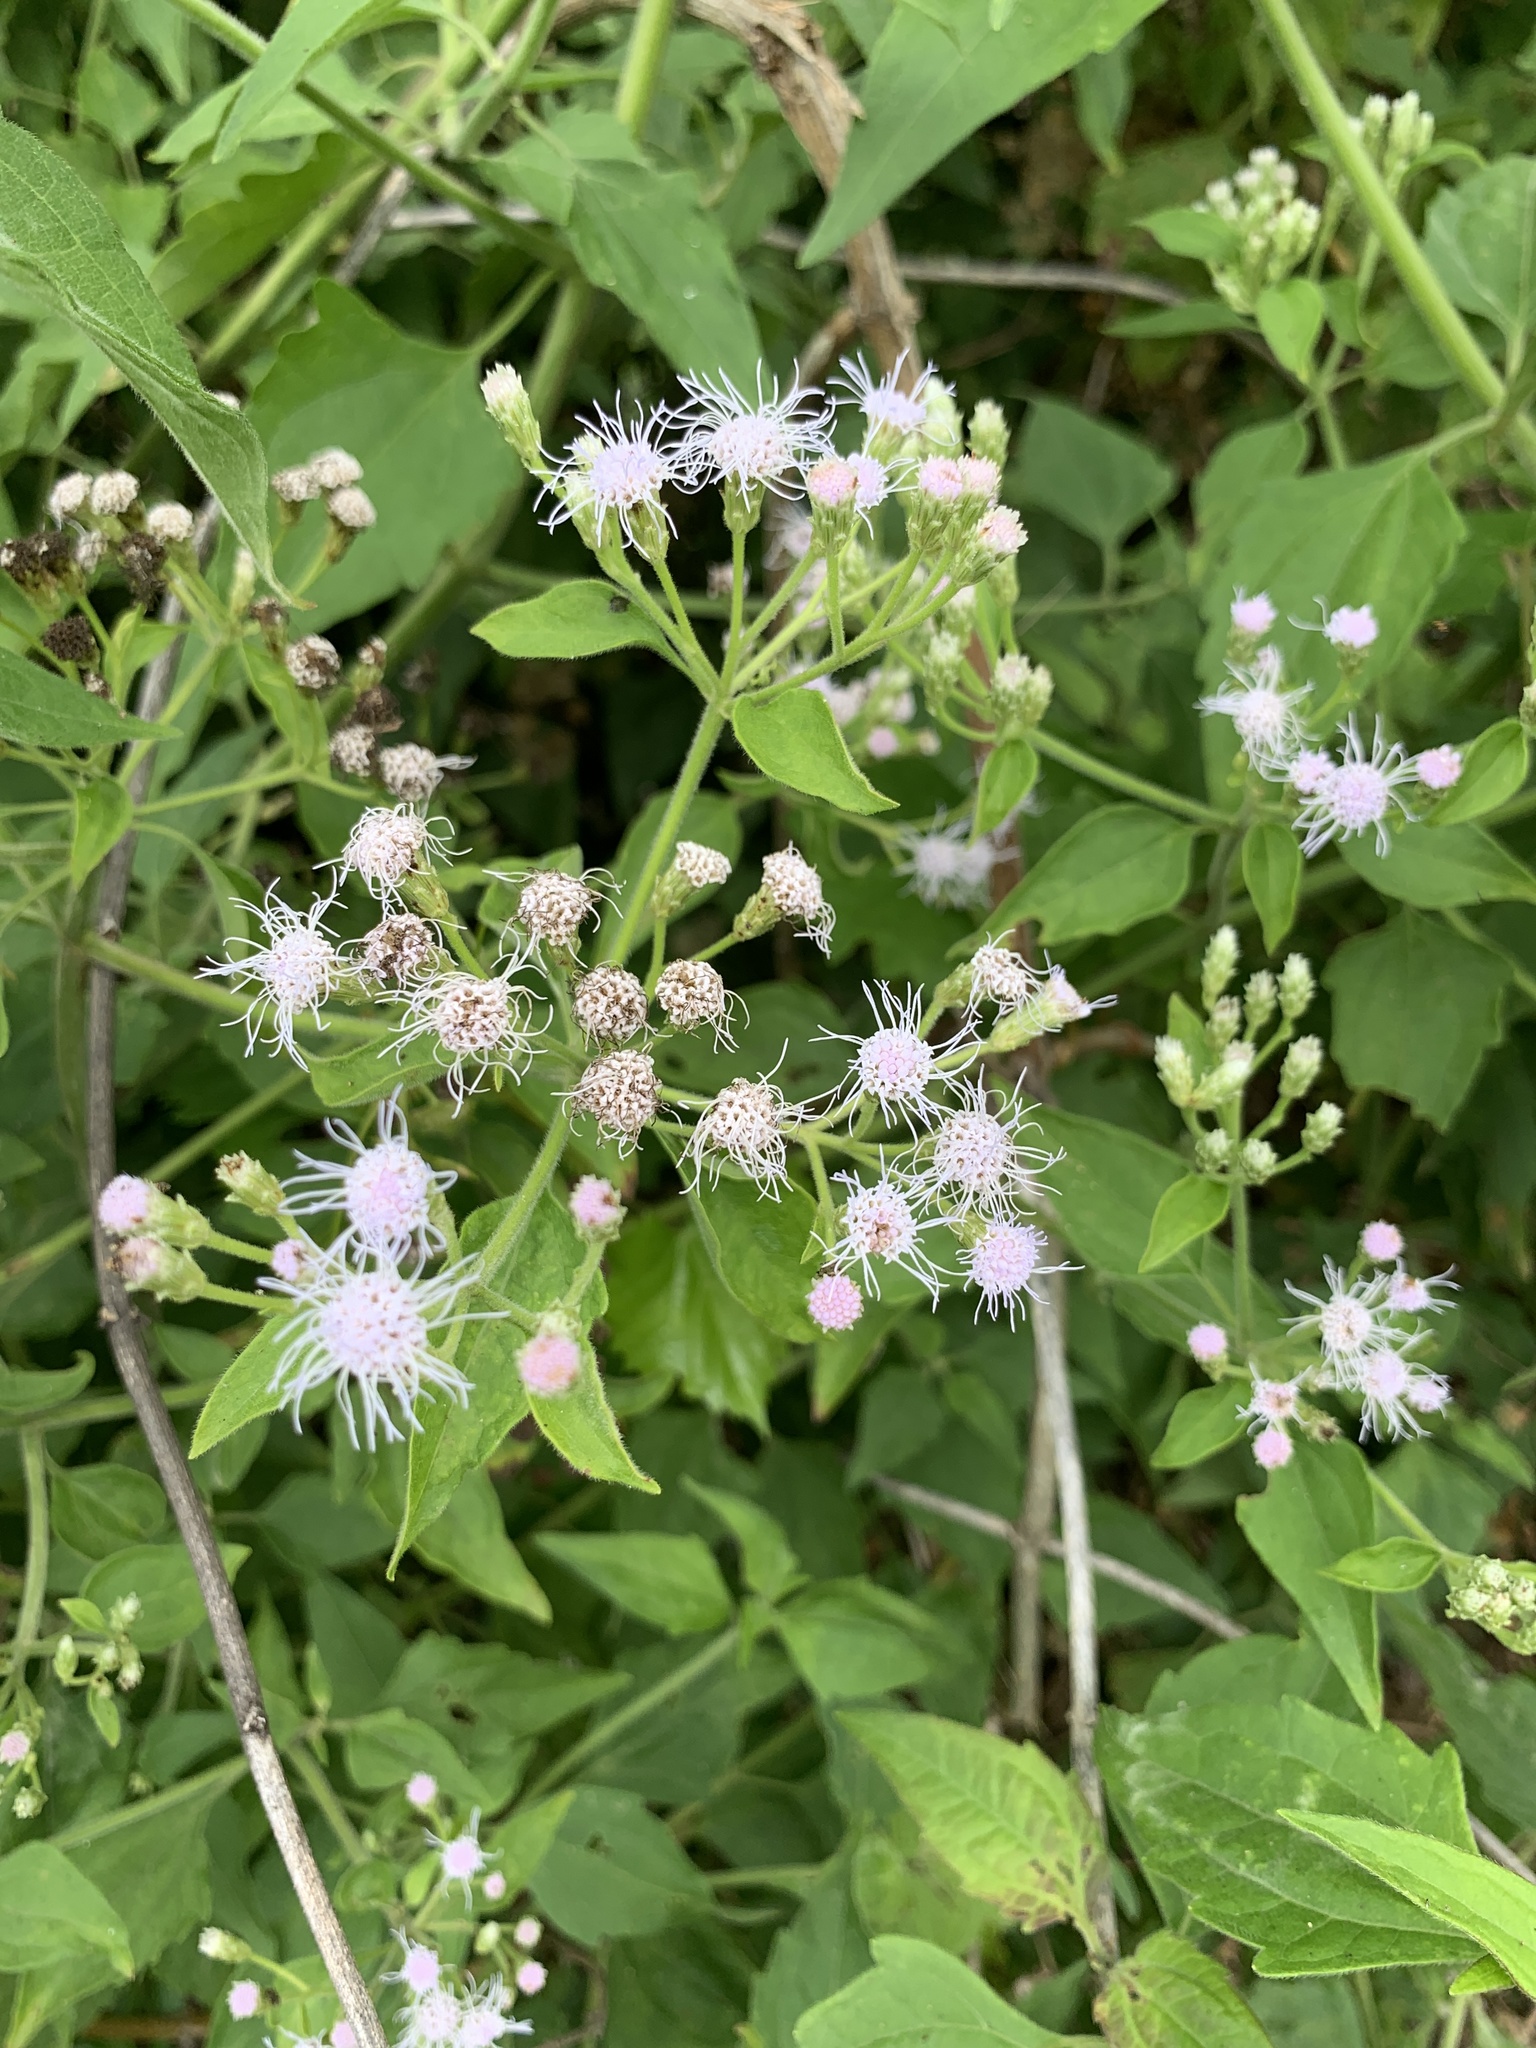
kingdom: Plantae
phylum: Tracheophyta
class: Magnoliopsida
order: Asterales
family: Asteraceae
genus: Chromolaena
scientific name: Chromolaena odorata
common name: Siamweed
